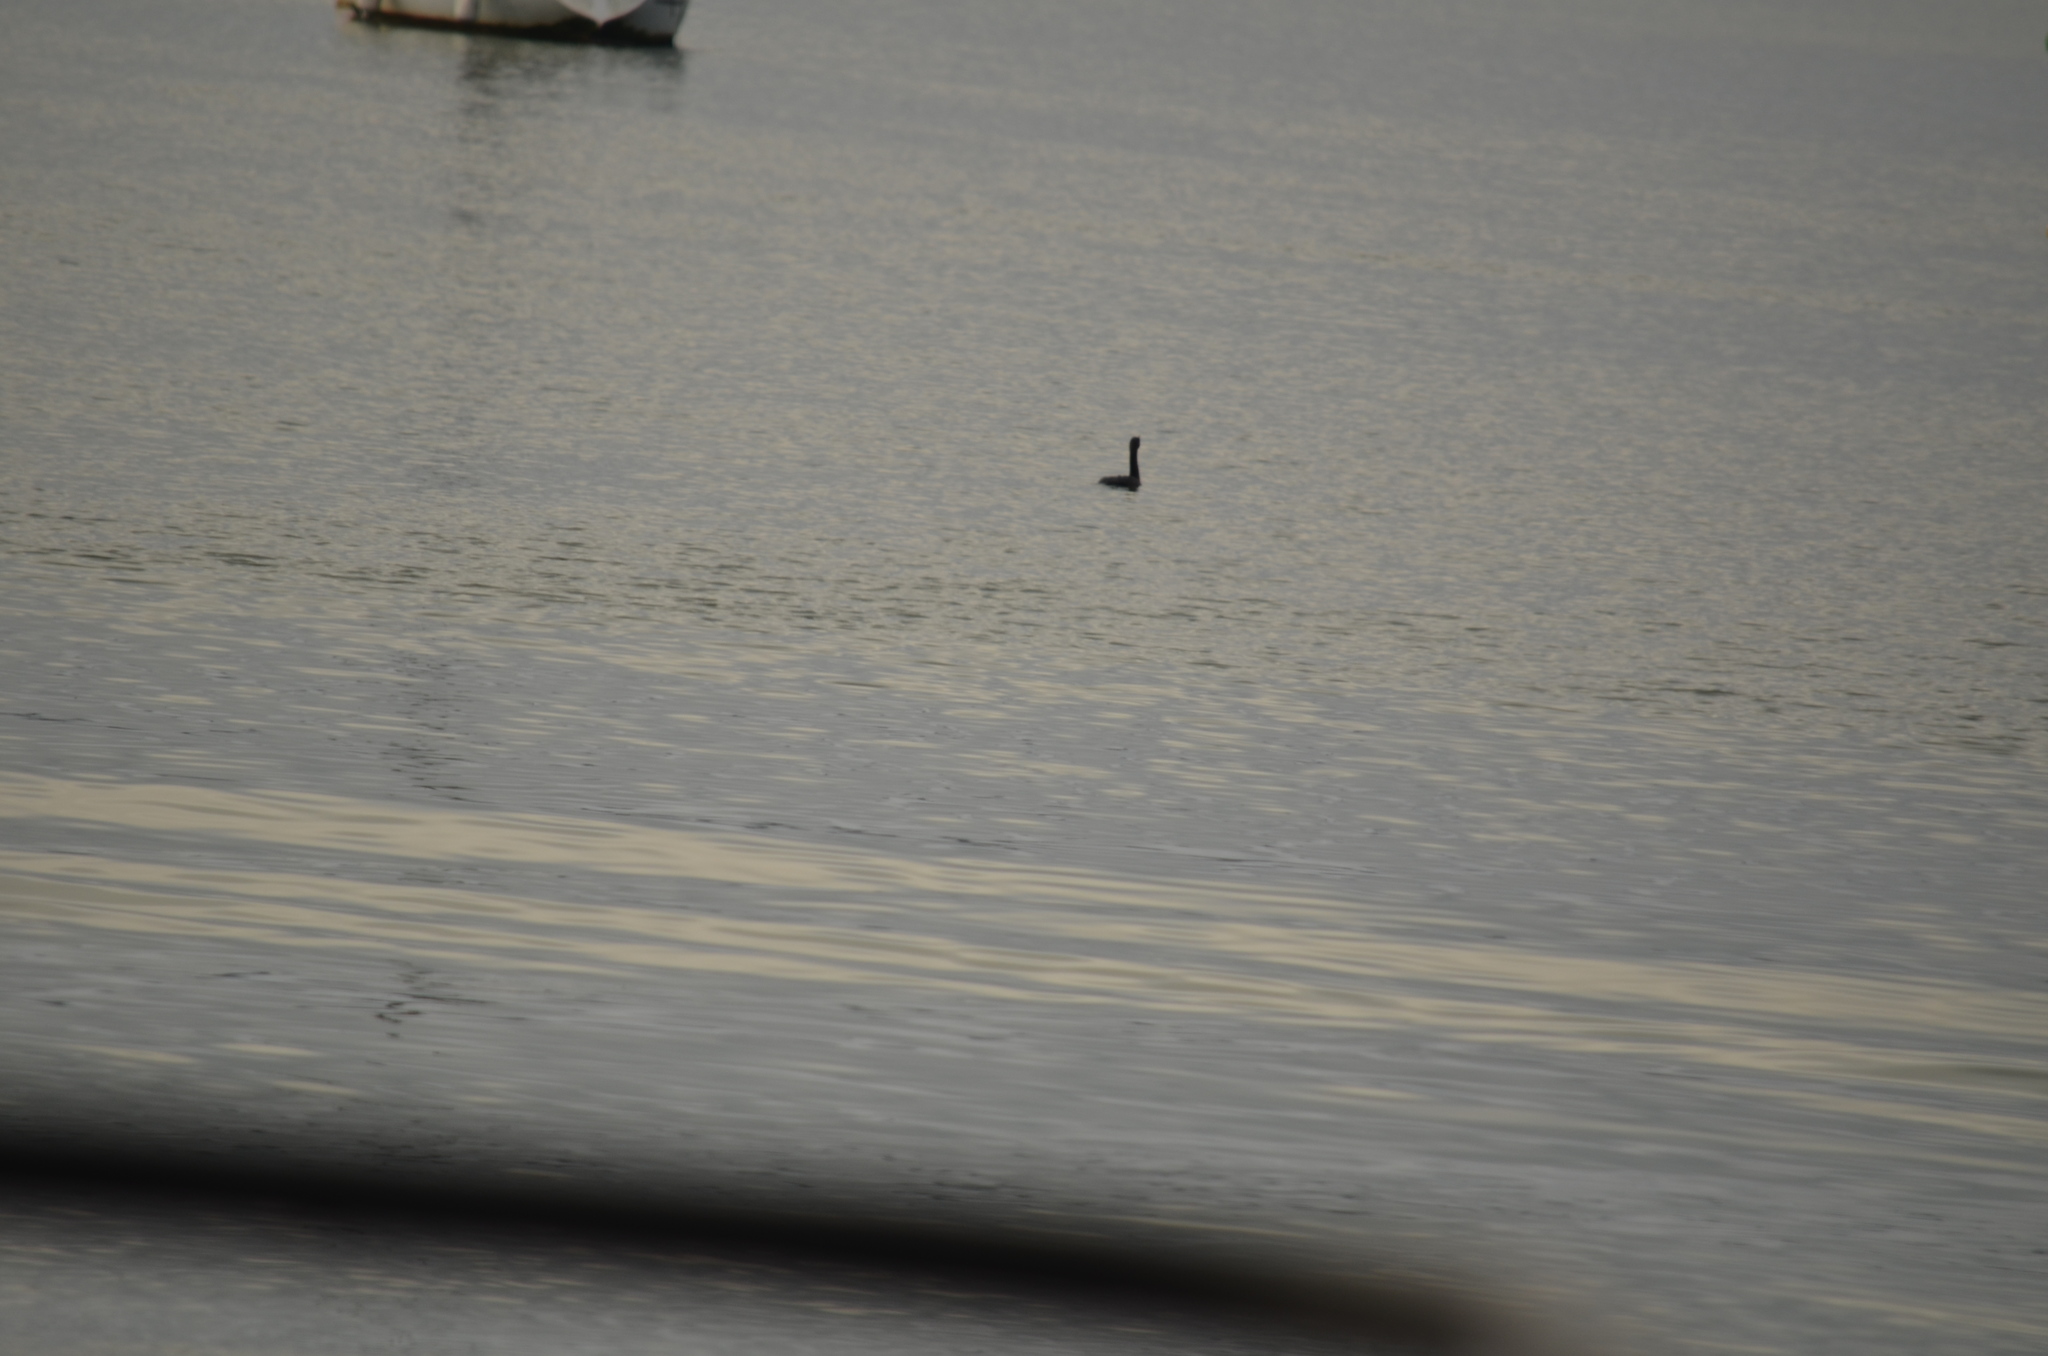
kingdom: Animalia
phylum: Chordata
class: Aves
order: Suliformes
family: Phalacrocoracidae
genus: Phalacrocorax
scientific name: Phalacrocorax auritus
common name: Double-crested cormorant
